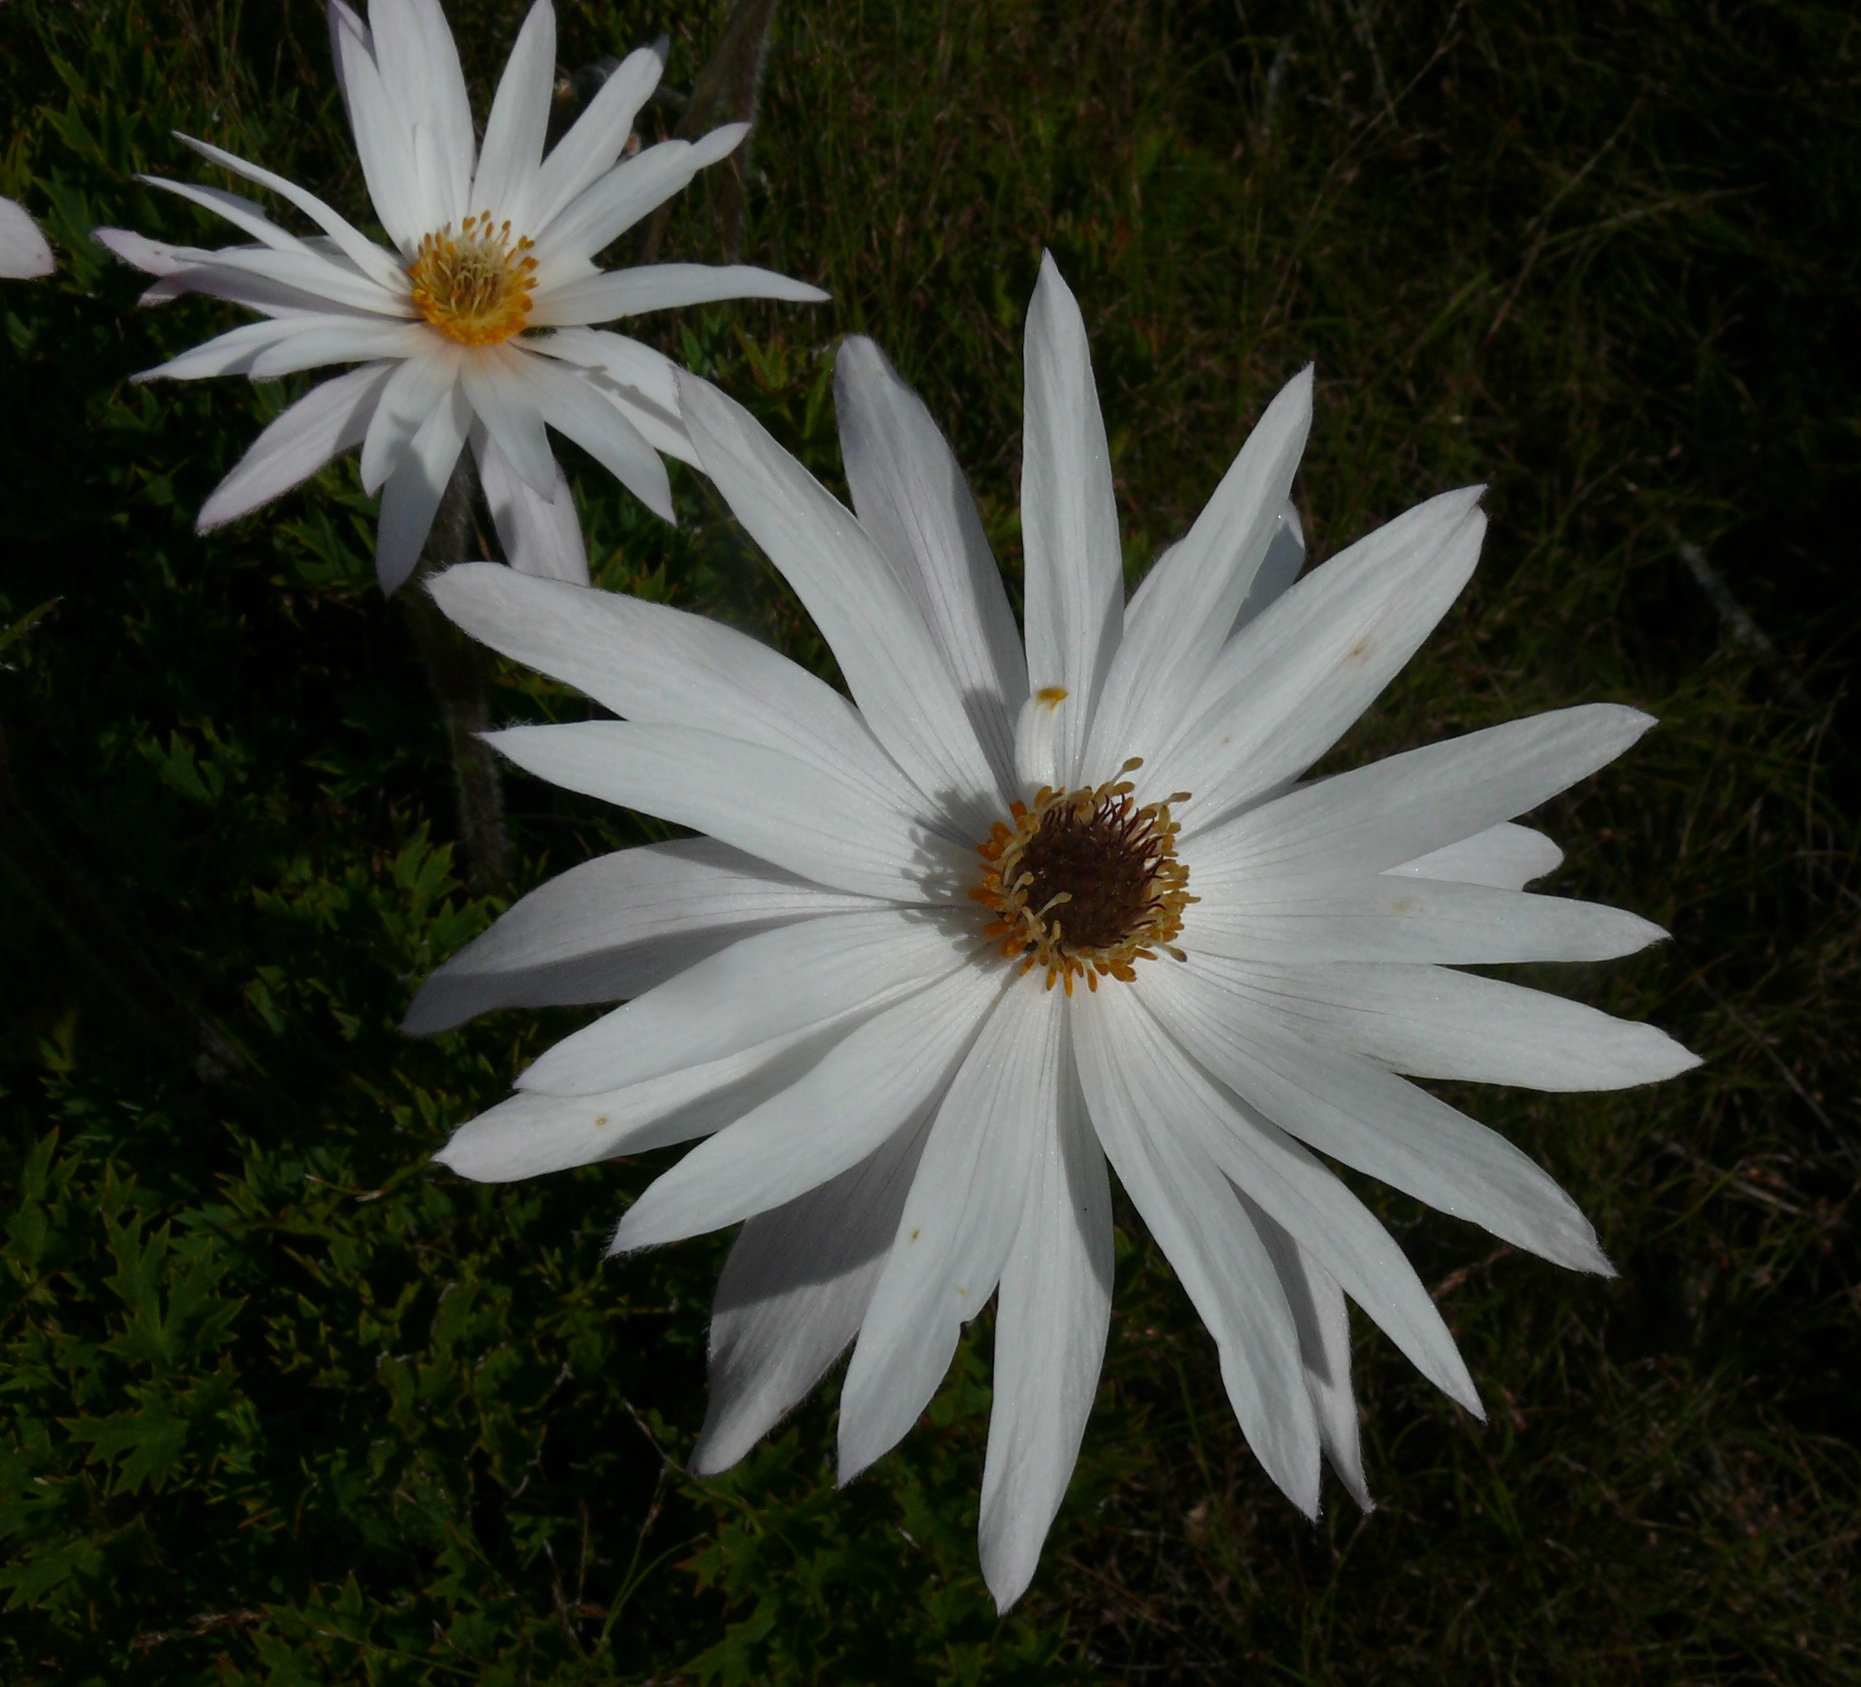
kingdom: Plantae
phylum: Tracheophyta
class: Magnoliopsida
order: Ranunculales
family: Ranunculaceae
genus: Knowltonia
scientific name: Knowltonia tenuifolia
